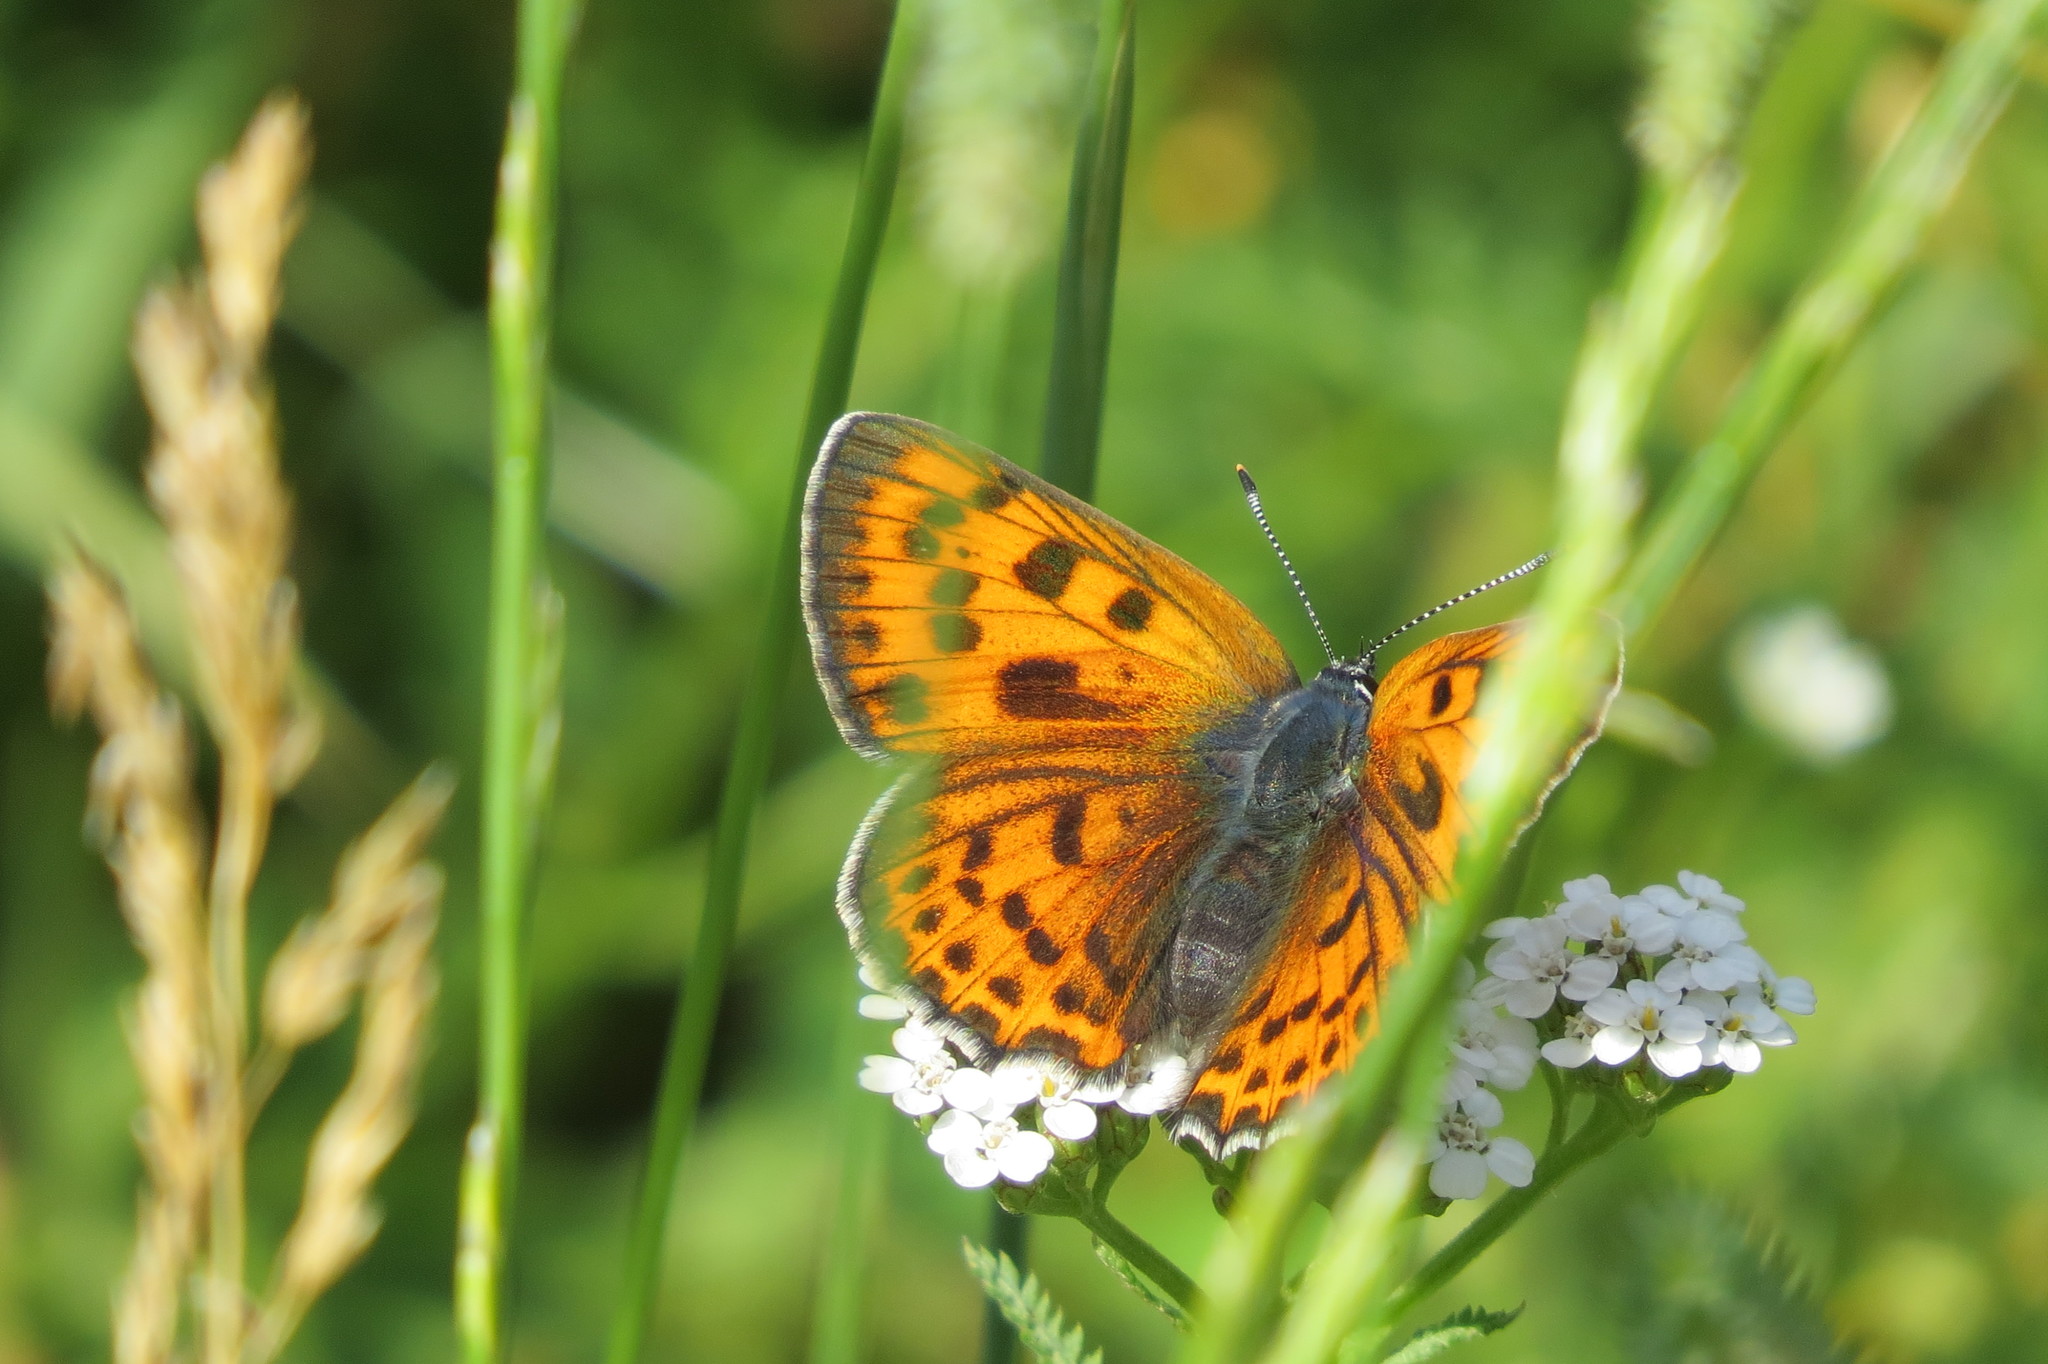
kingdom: Animalia
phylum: Arthropoda
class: Insecta
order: Lepidoptera
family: Lycaenidae
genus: Lycaena
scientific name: Lycaena alciphron
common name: Purple-shot copper
